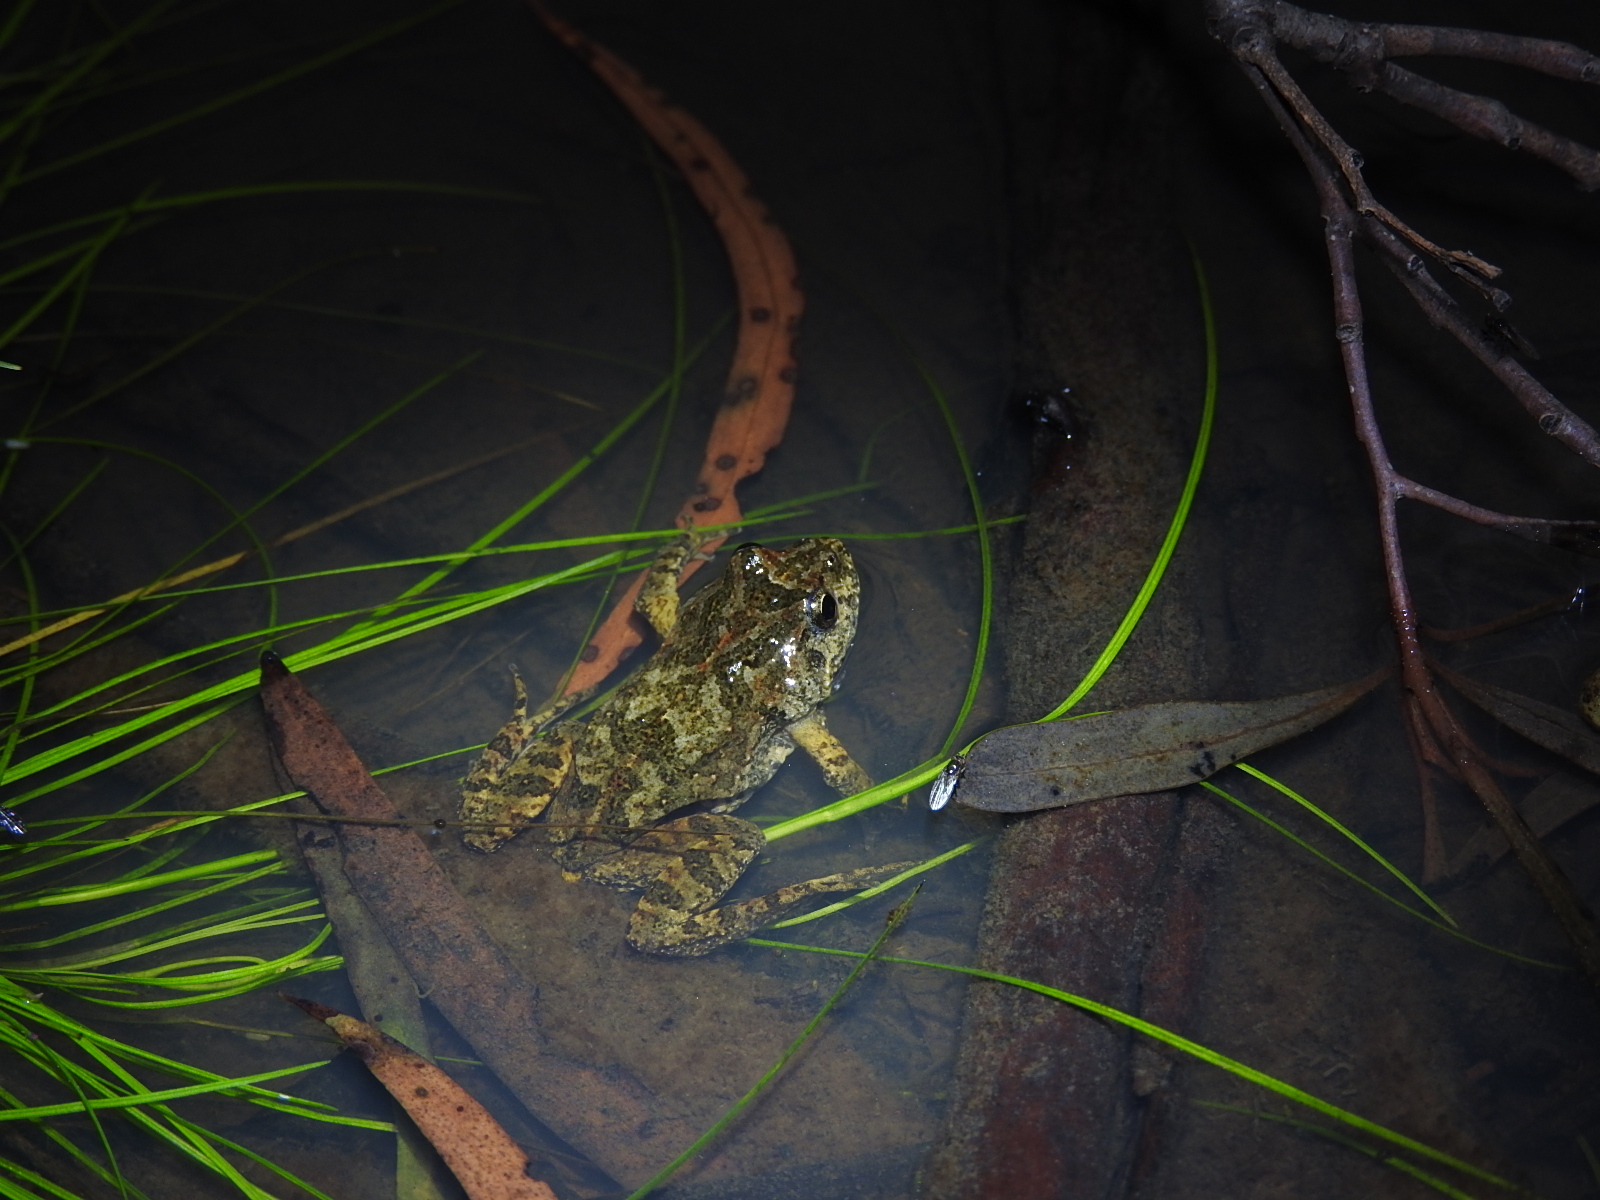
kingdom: Animalia
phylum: Chordata
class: Amphibia
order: Anura
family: Myobatrachidae
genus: Crinia
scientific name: Crinia signifera
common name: Brown froglet
